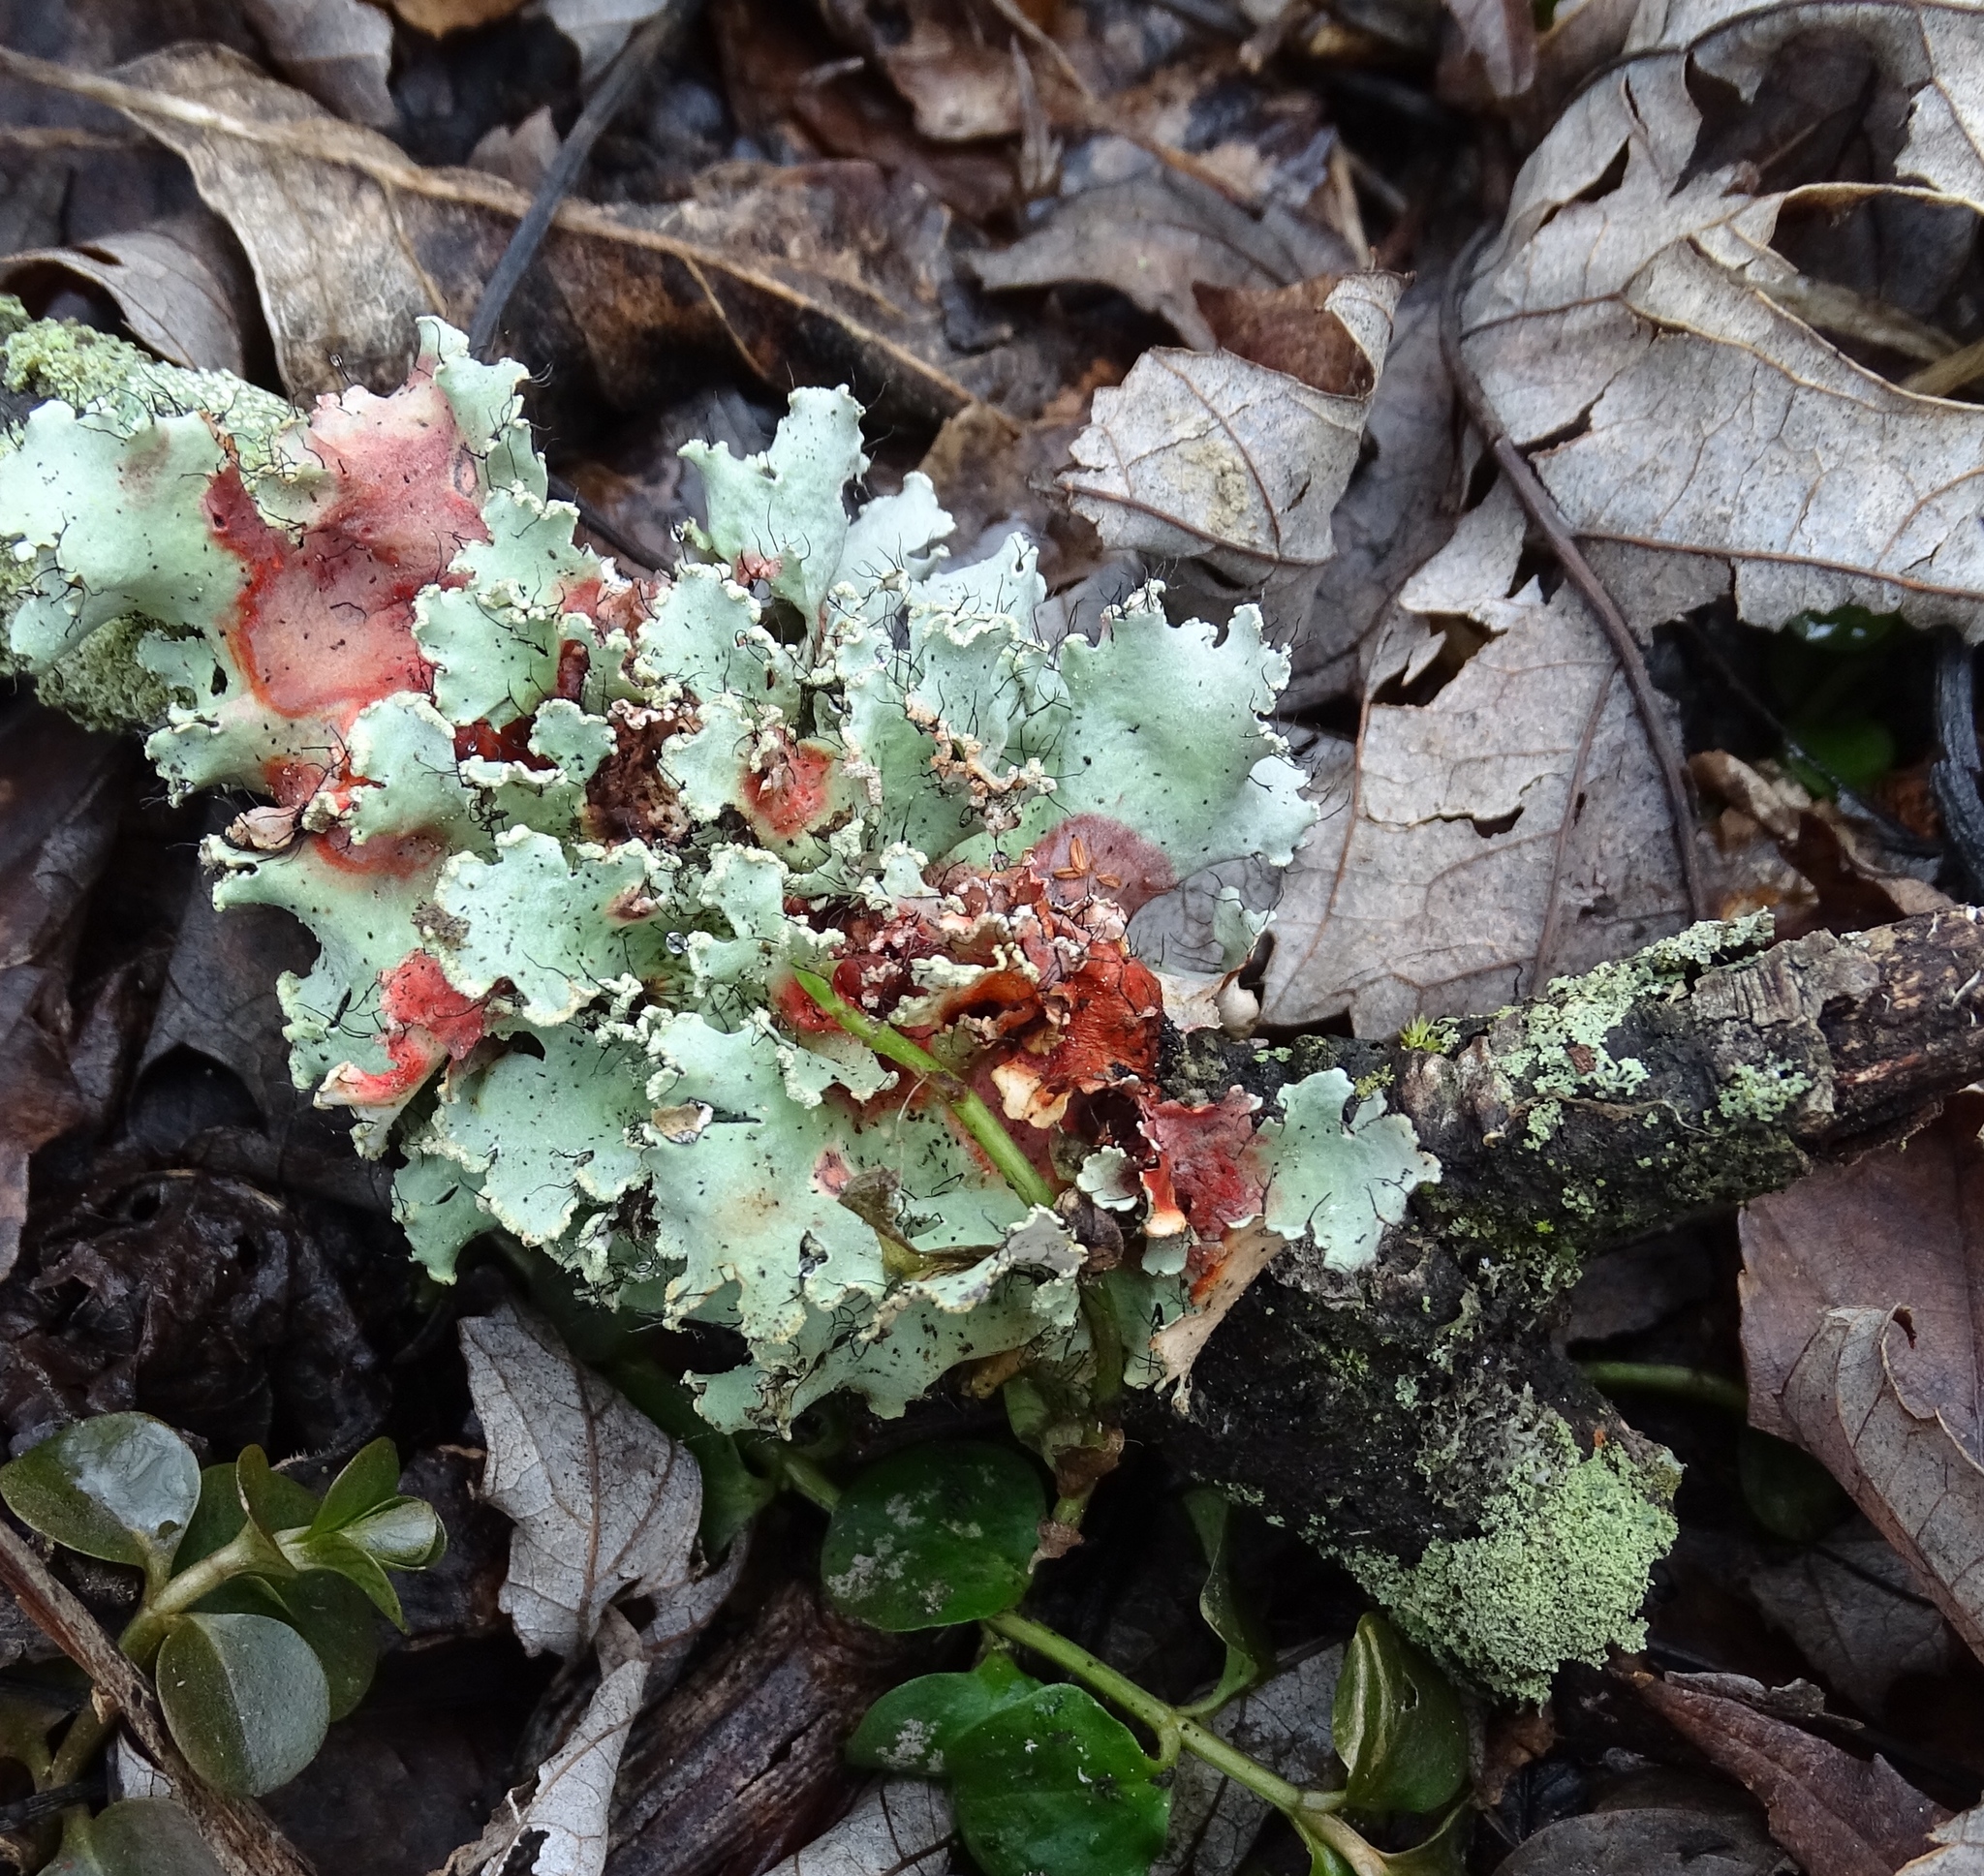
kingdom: Fungi
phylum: Ascomycota
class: Lecanoromycetes
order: Lecanorales
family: Parmeliaceae
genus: Parmotrema
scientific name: Parmotrema hypotropum
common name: Powdered ruffle lichen
